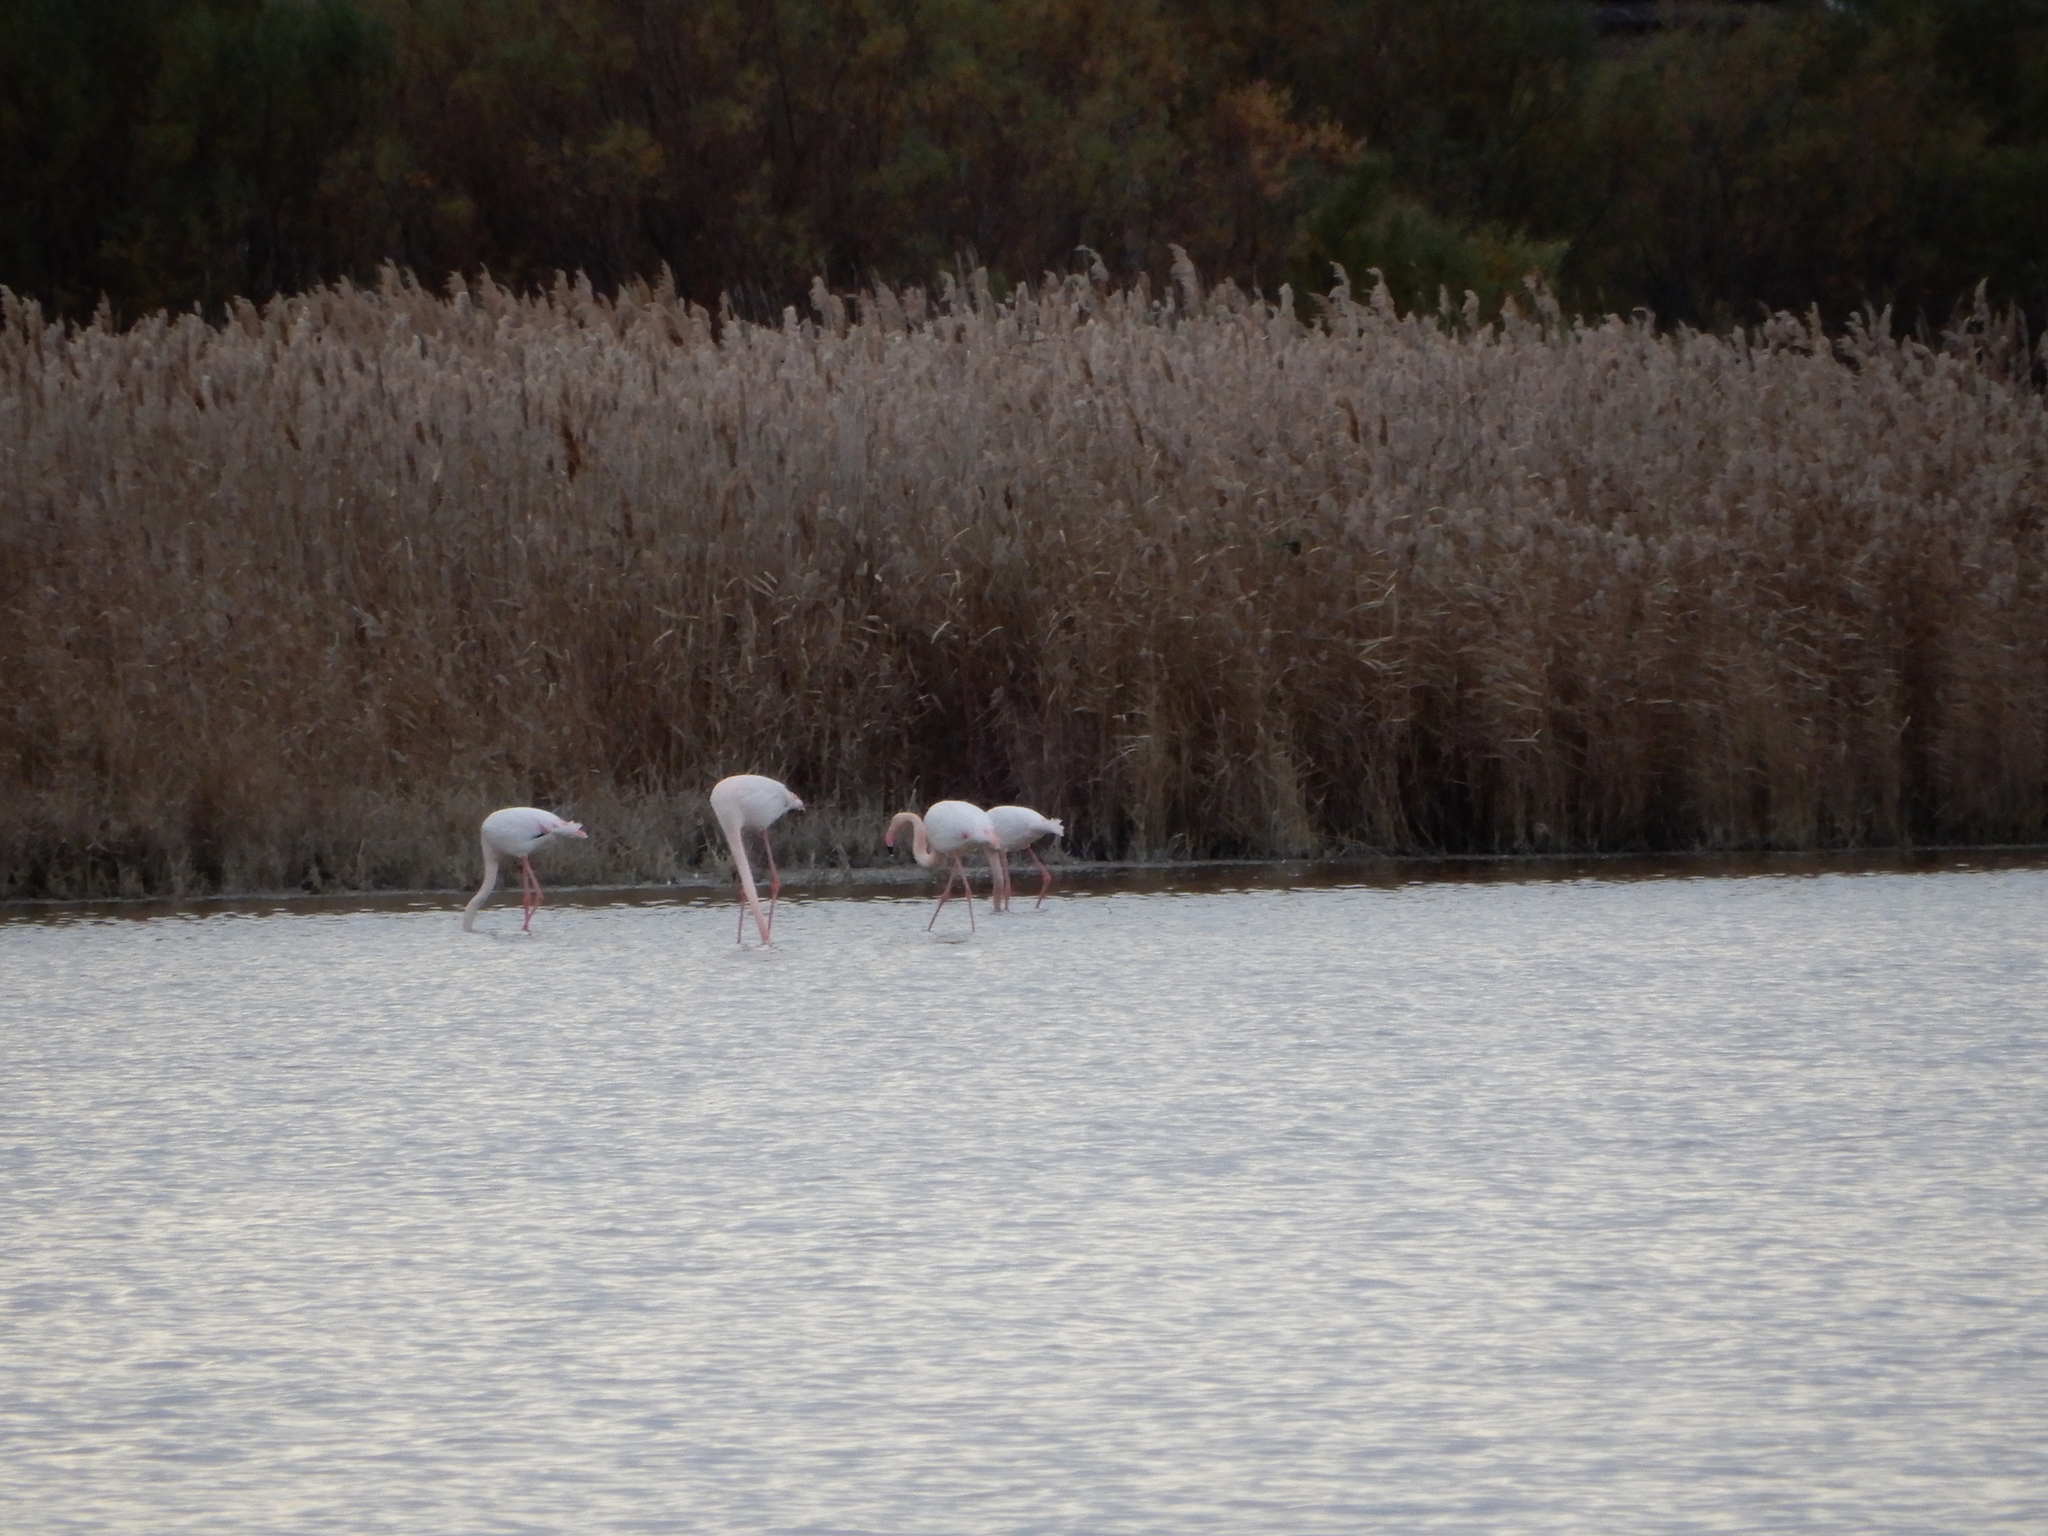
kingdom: Animalia
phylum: Chordata
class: Aves
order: Phoenicopteriformes
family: Phoenicopteridae
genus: Phoenicopterus
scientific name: Phoenicopterus roseus
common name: Greater flamingo
